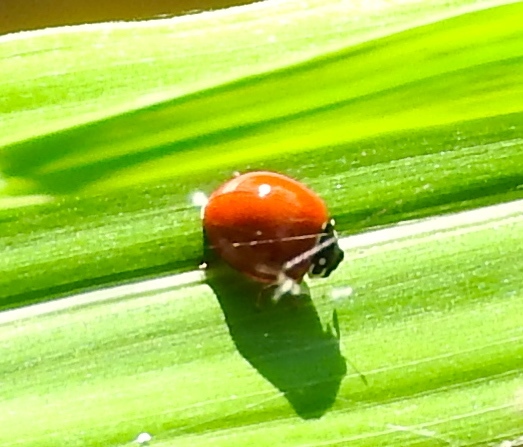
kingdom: Animalia
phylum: Arthropoda
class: Insecta
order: Coleoptera
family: Coccinellidae
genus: Cycloneda
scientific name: Cycloneda sanguinea
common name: Ladybird beetle
